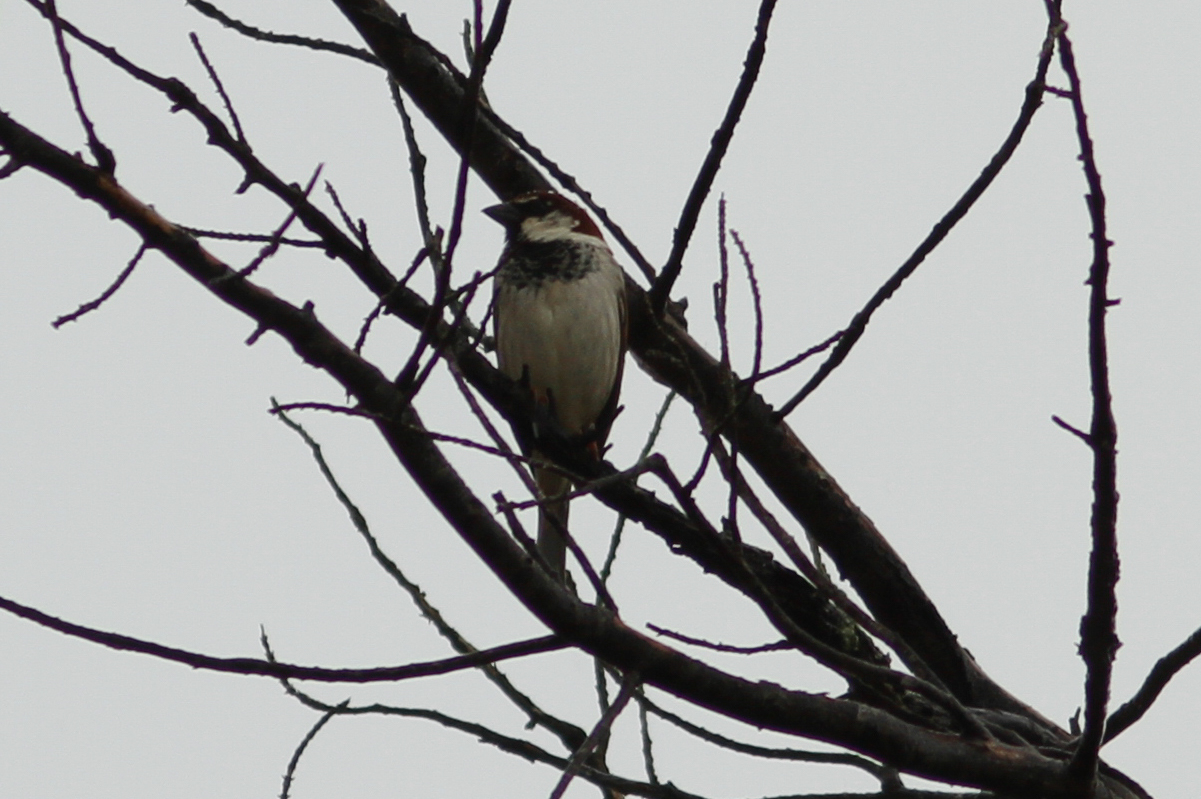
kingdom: Animalia
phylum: Chordata
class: Aves
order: Passeriformes
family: Passeridae
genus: Passer
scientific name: Passer italiae
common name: Italian sparrow
